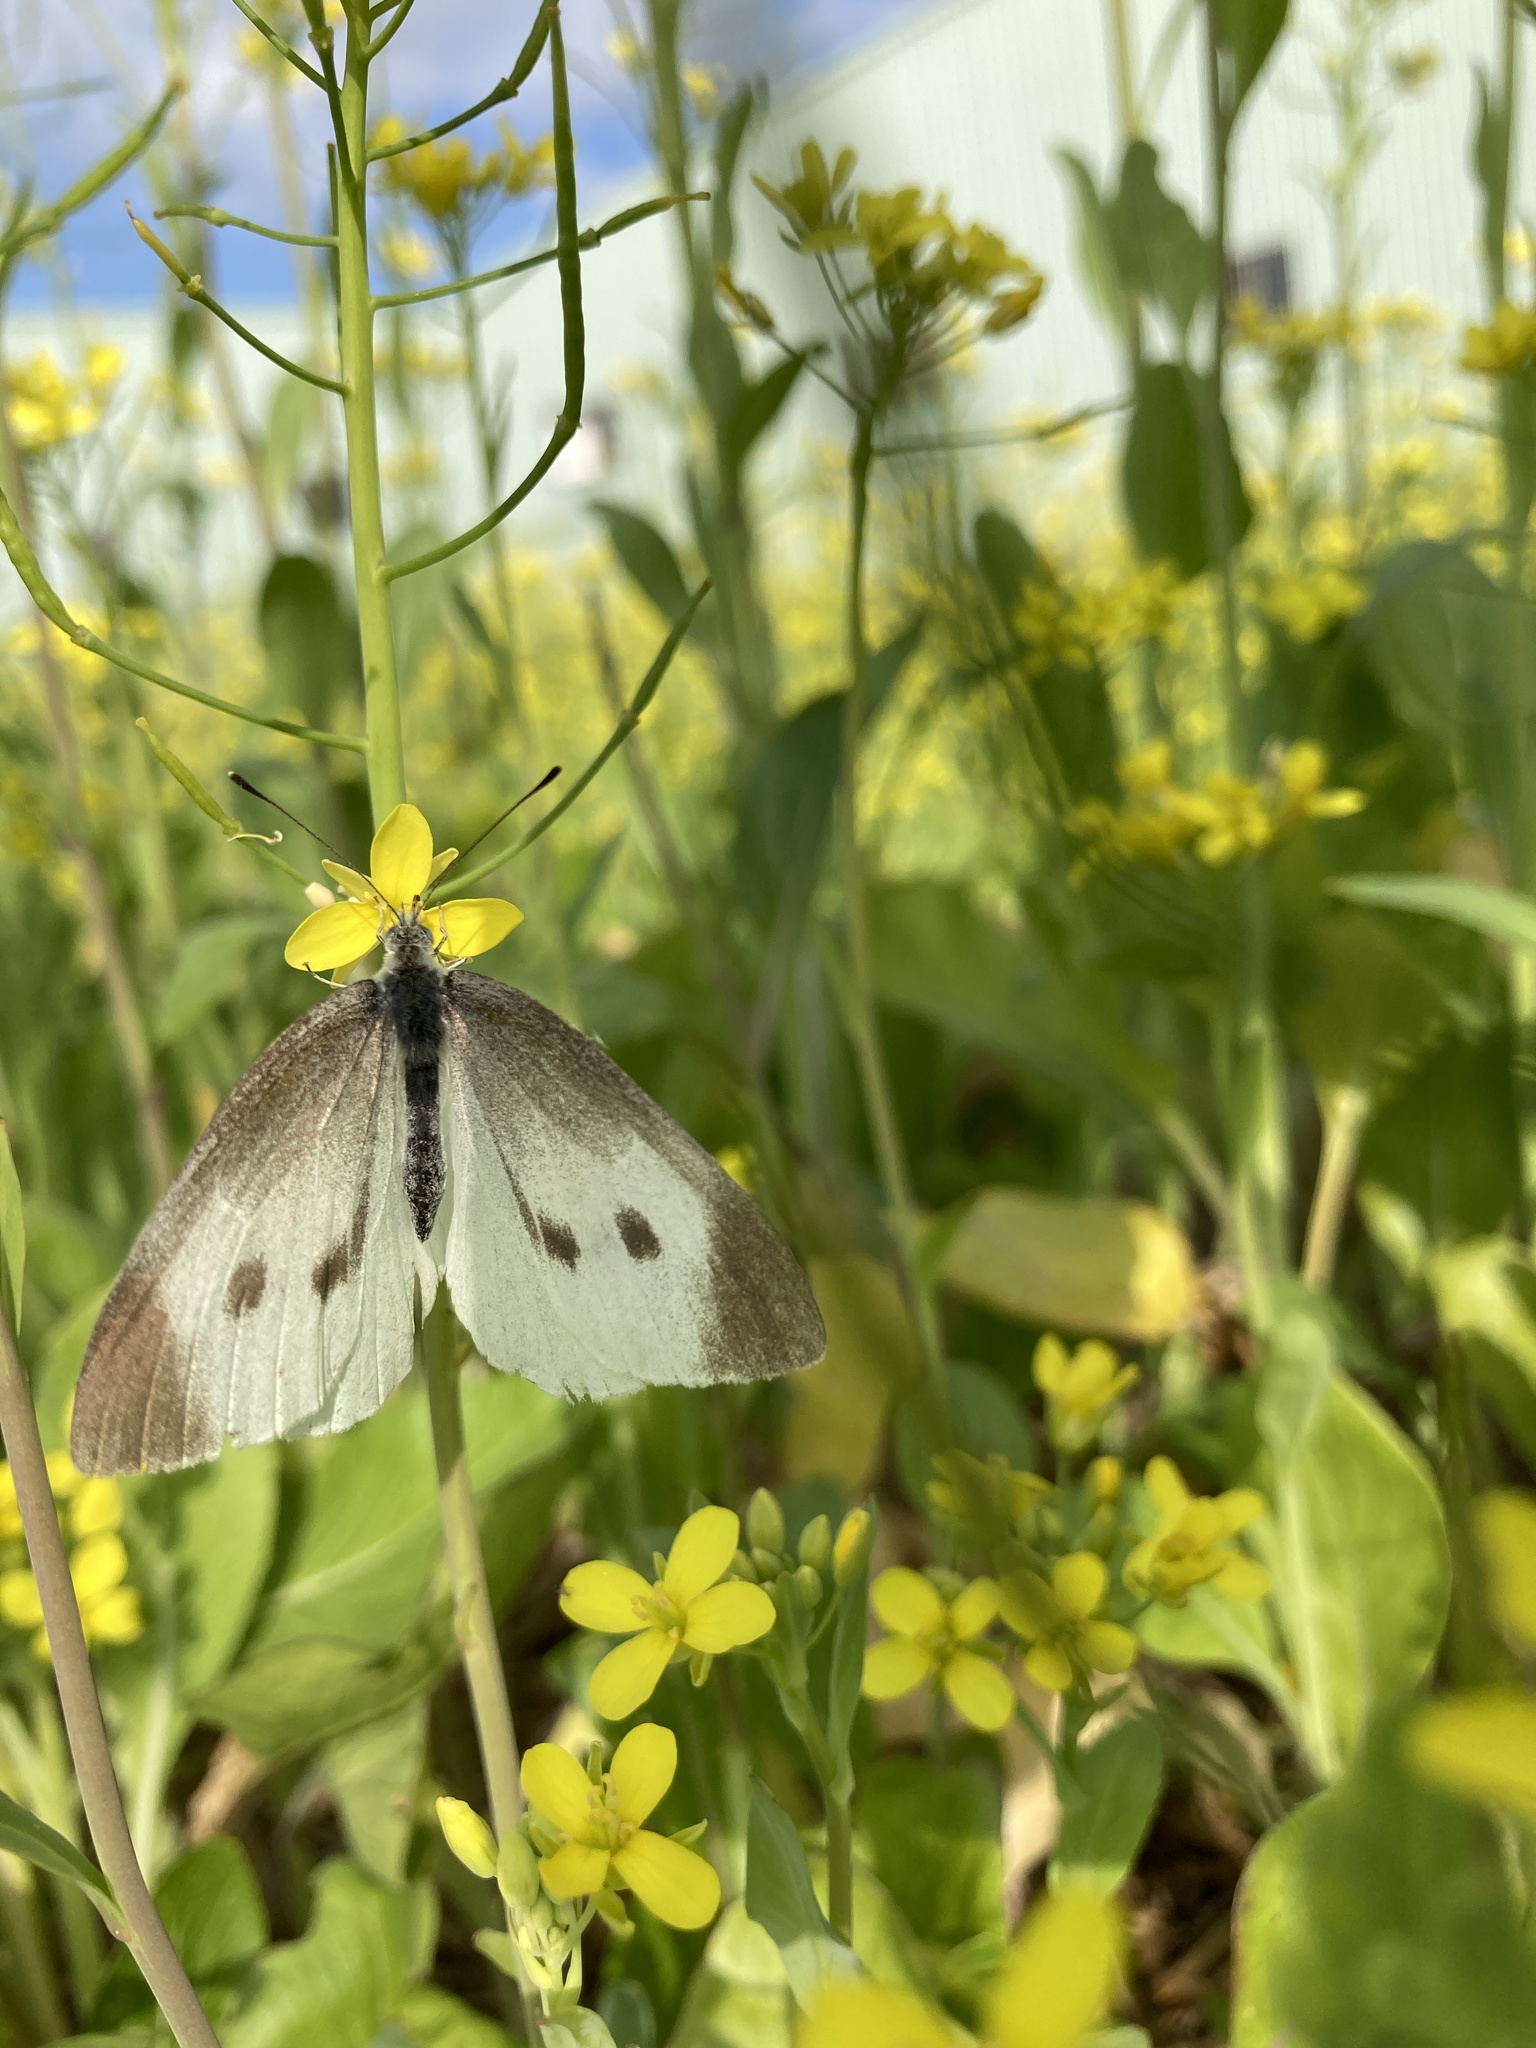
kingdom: Animalia
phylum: Arthropoda
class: Insecta
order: Lepidoptera
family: Pieridae
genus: Pieris
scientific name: Pieris rapae
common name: Small white
